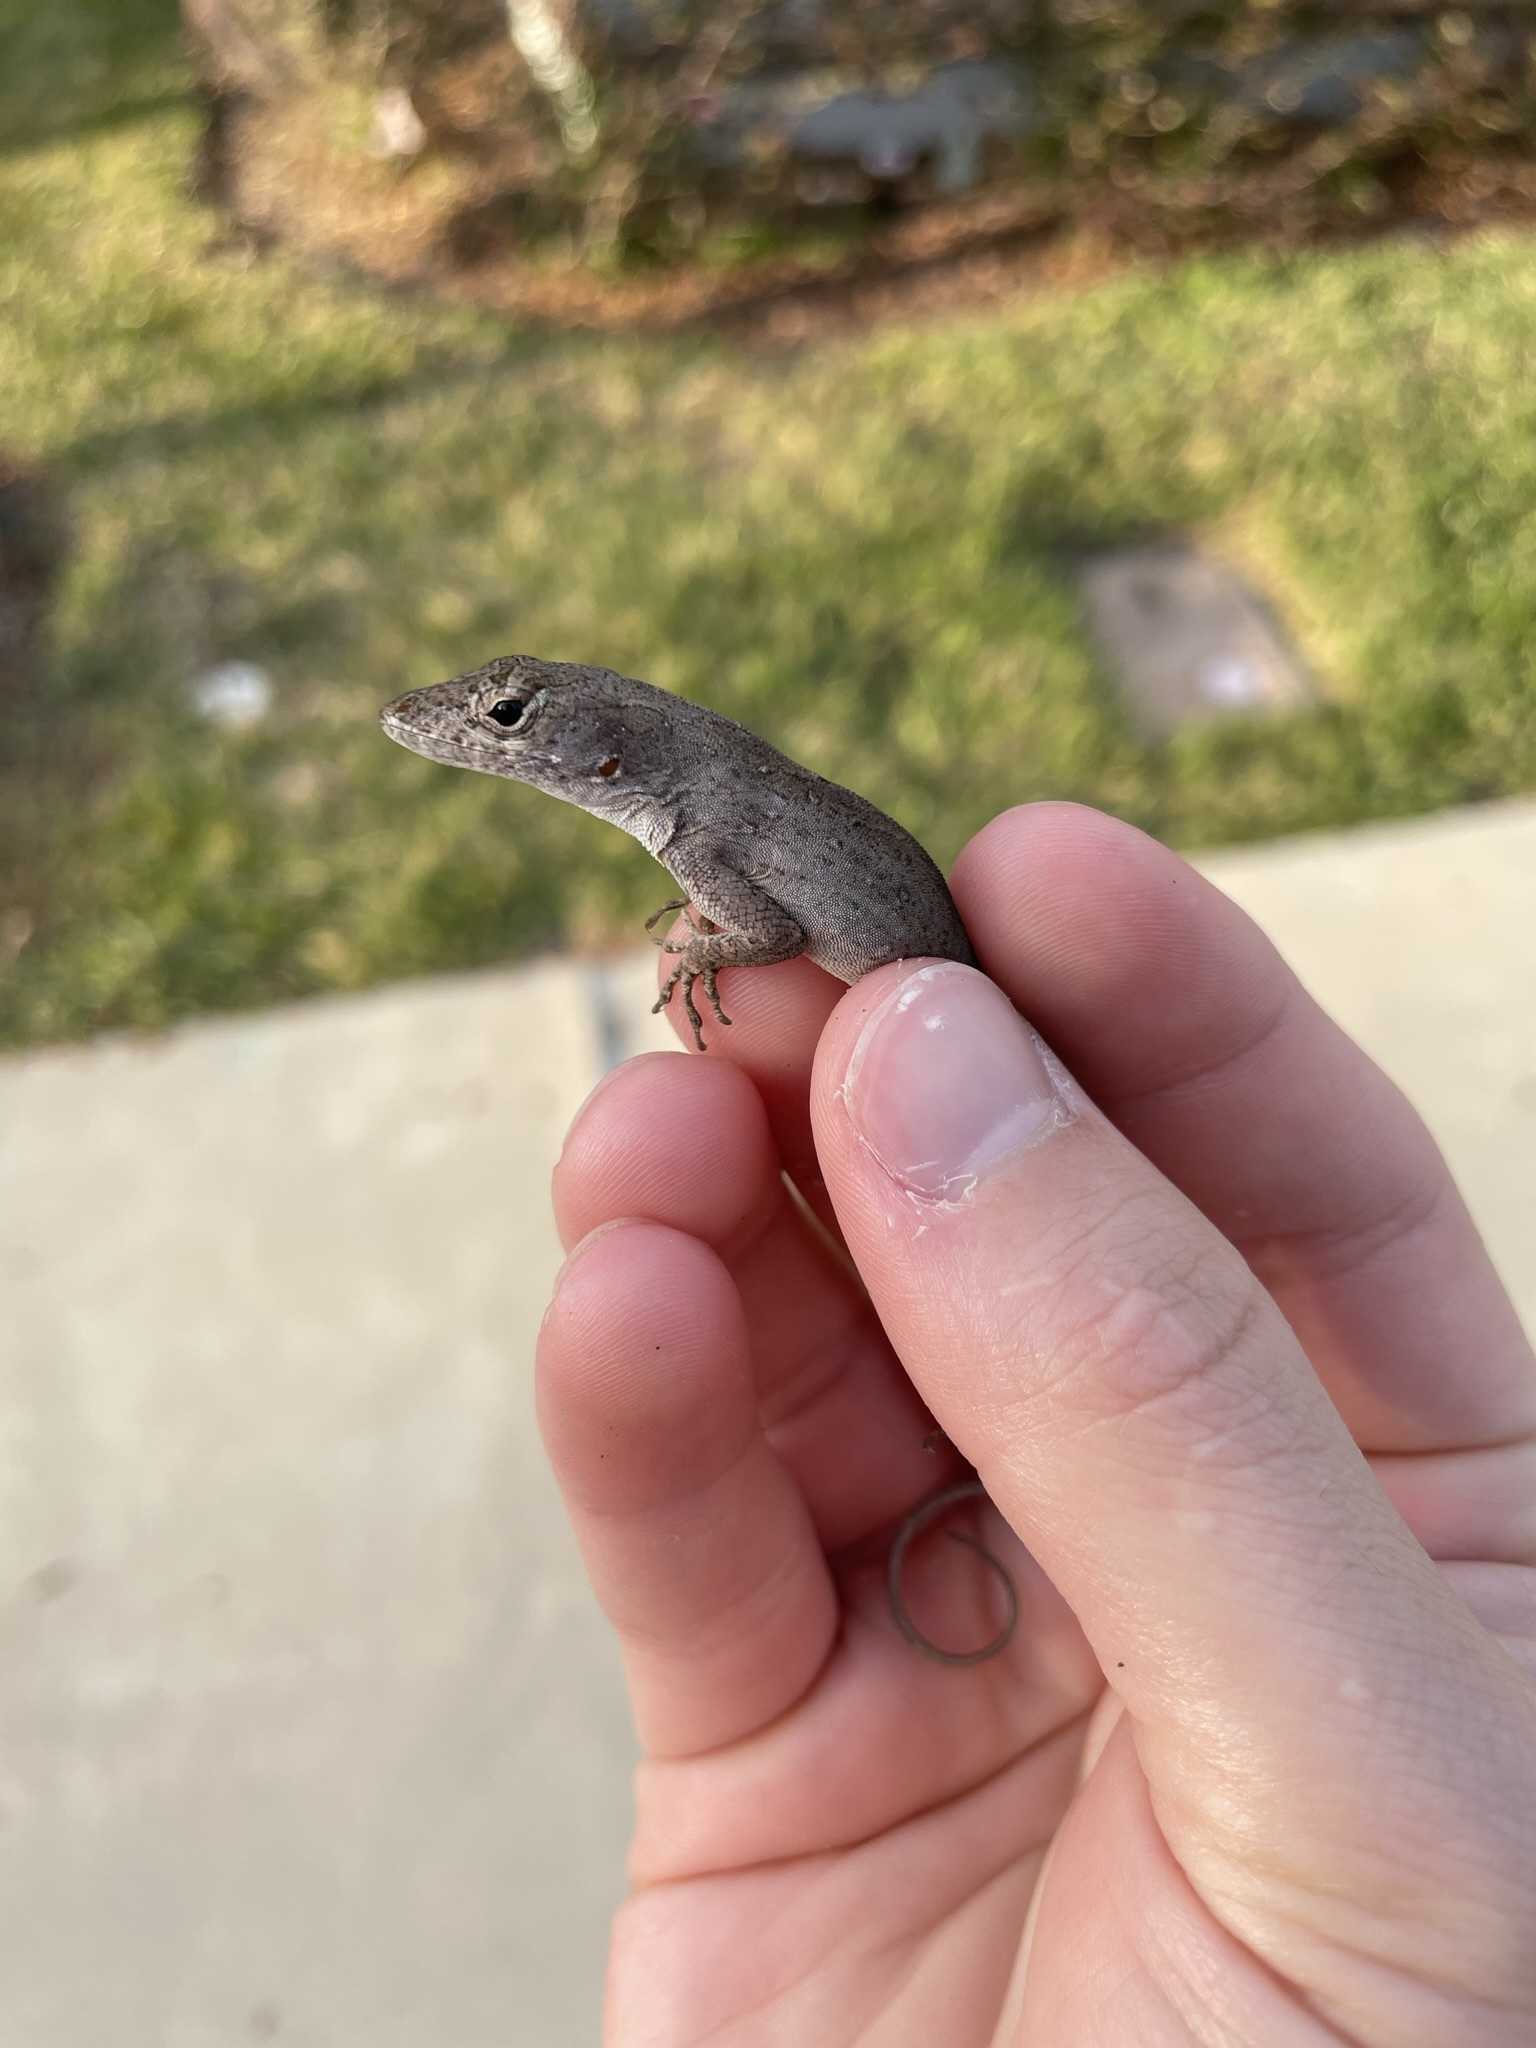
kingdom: Animalia
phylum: Chordata
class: Squamata
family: Dactyloidae
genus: Anolis
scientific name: Anolis sagrei
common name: Brown anole
